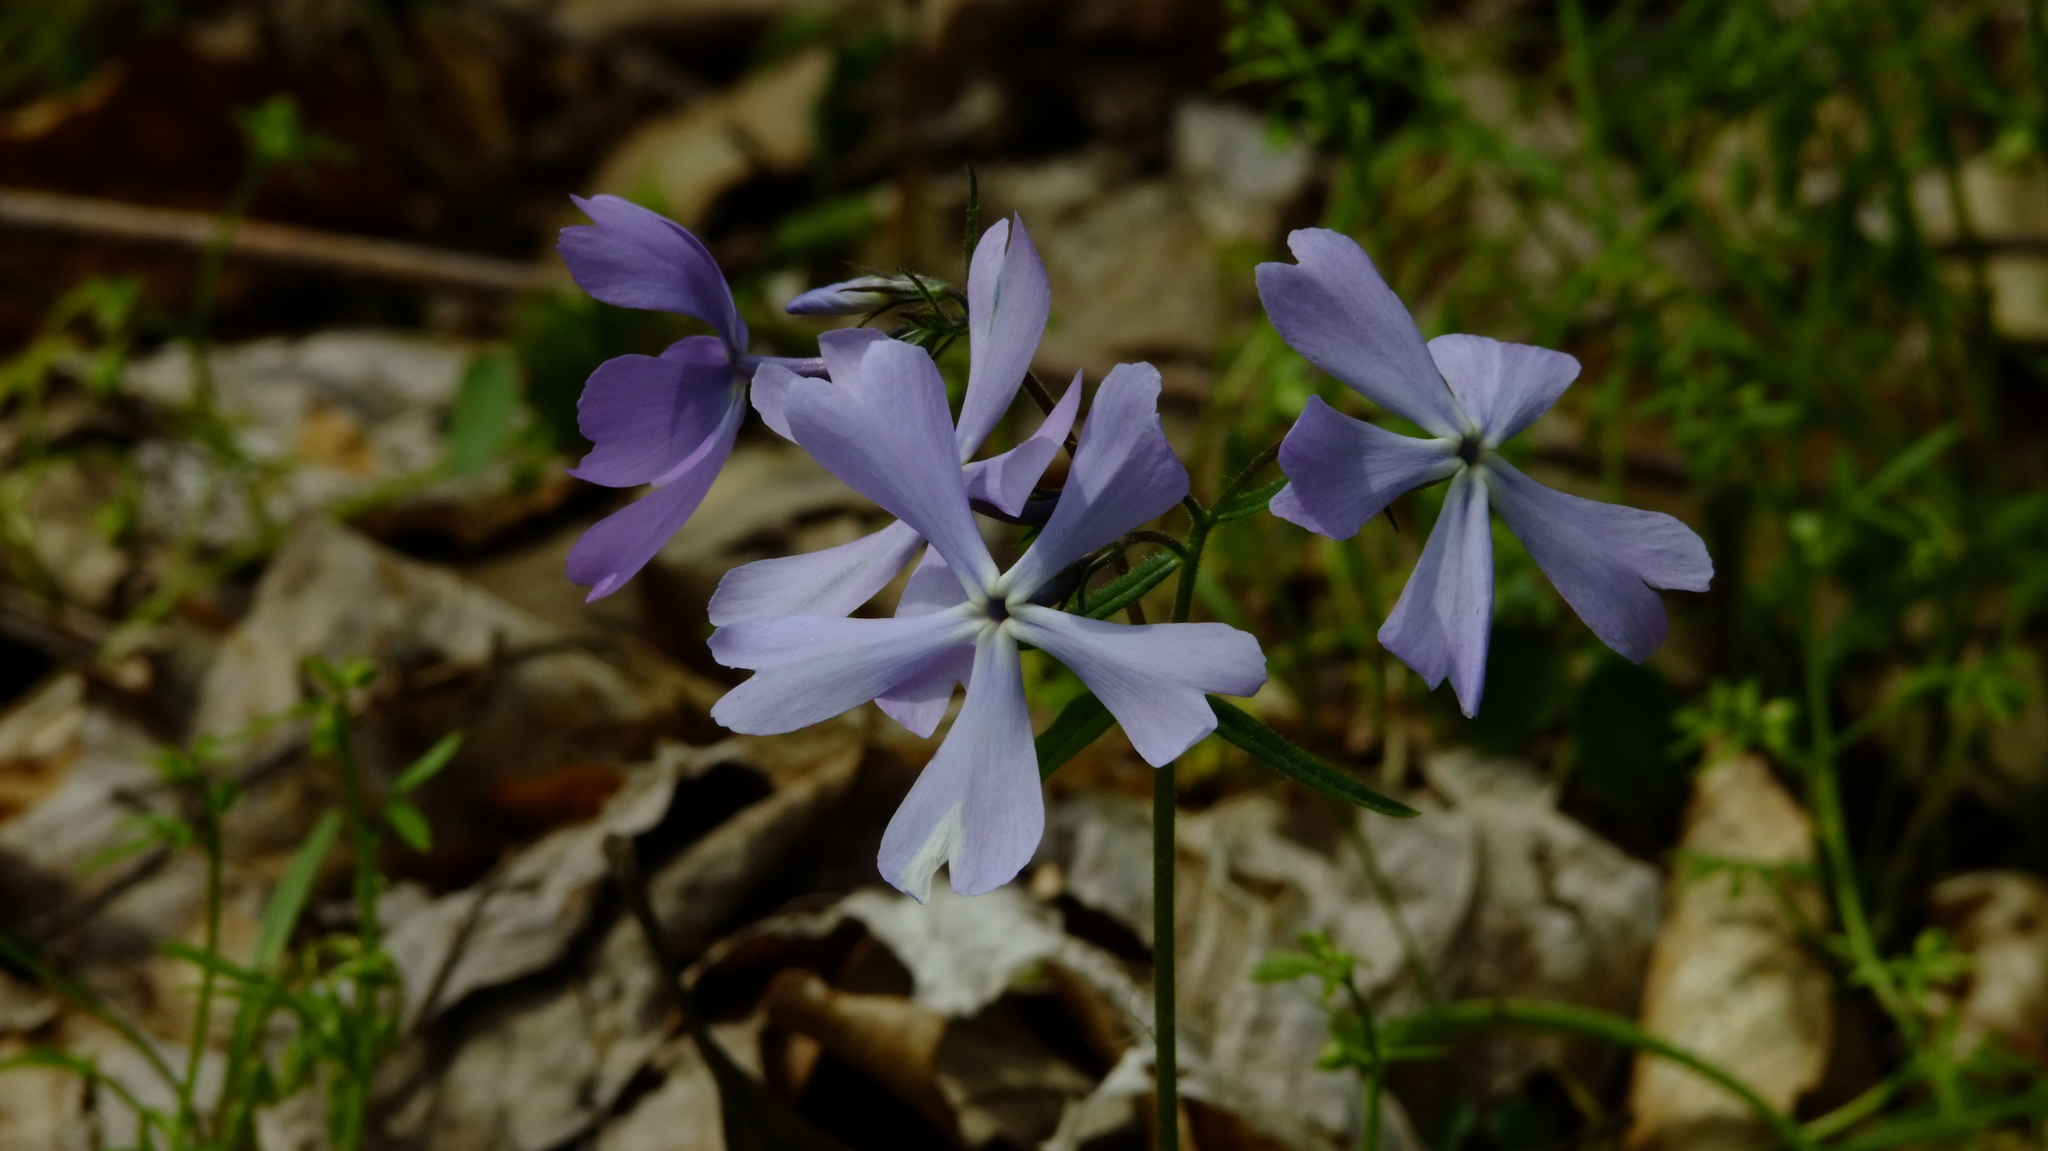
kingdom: Plantae
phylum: Tracheophyta
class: Magnoliopsida
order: Ericales
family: Polemoniaceae
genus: Phlox
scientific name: Phlox divaricata
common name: Blue phlox
